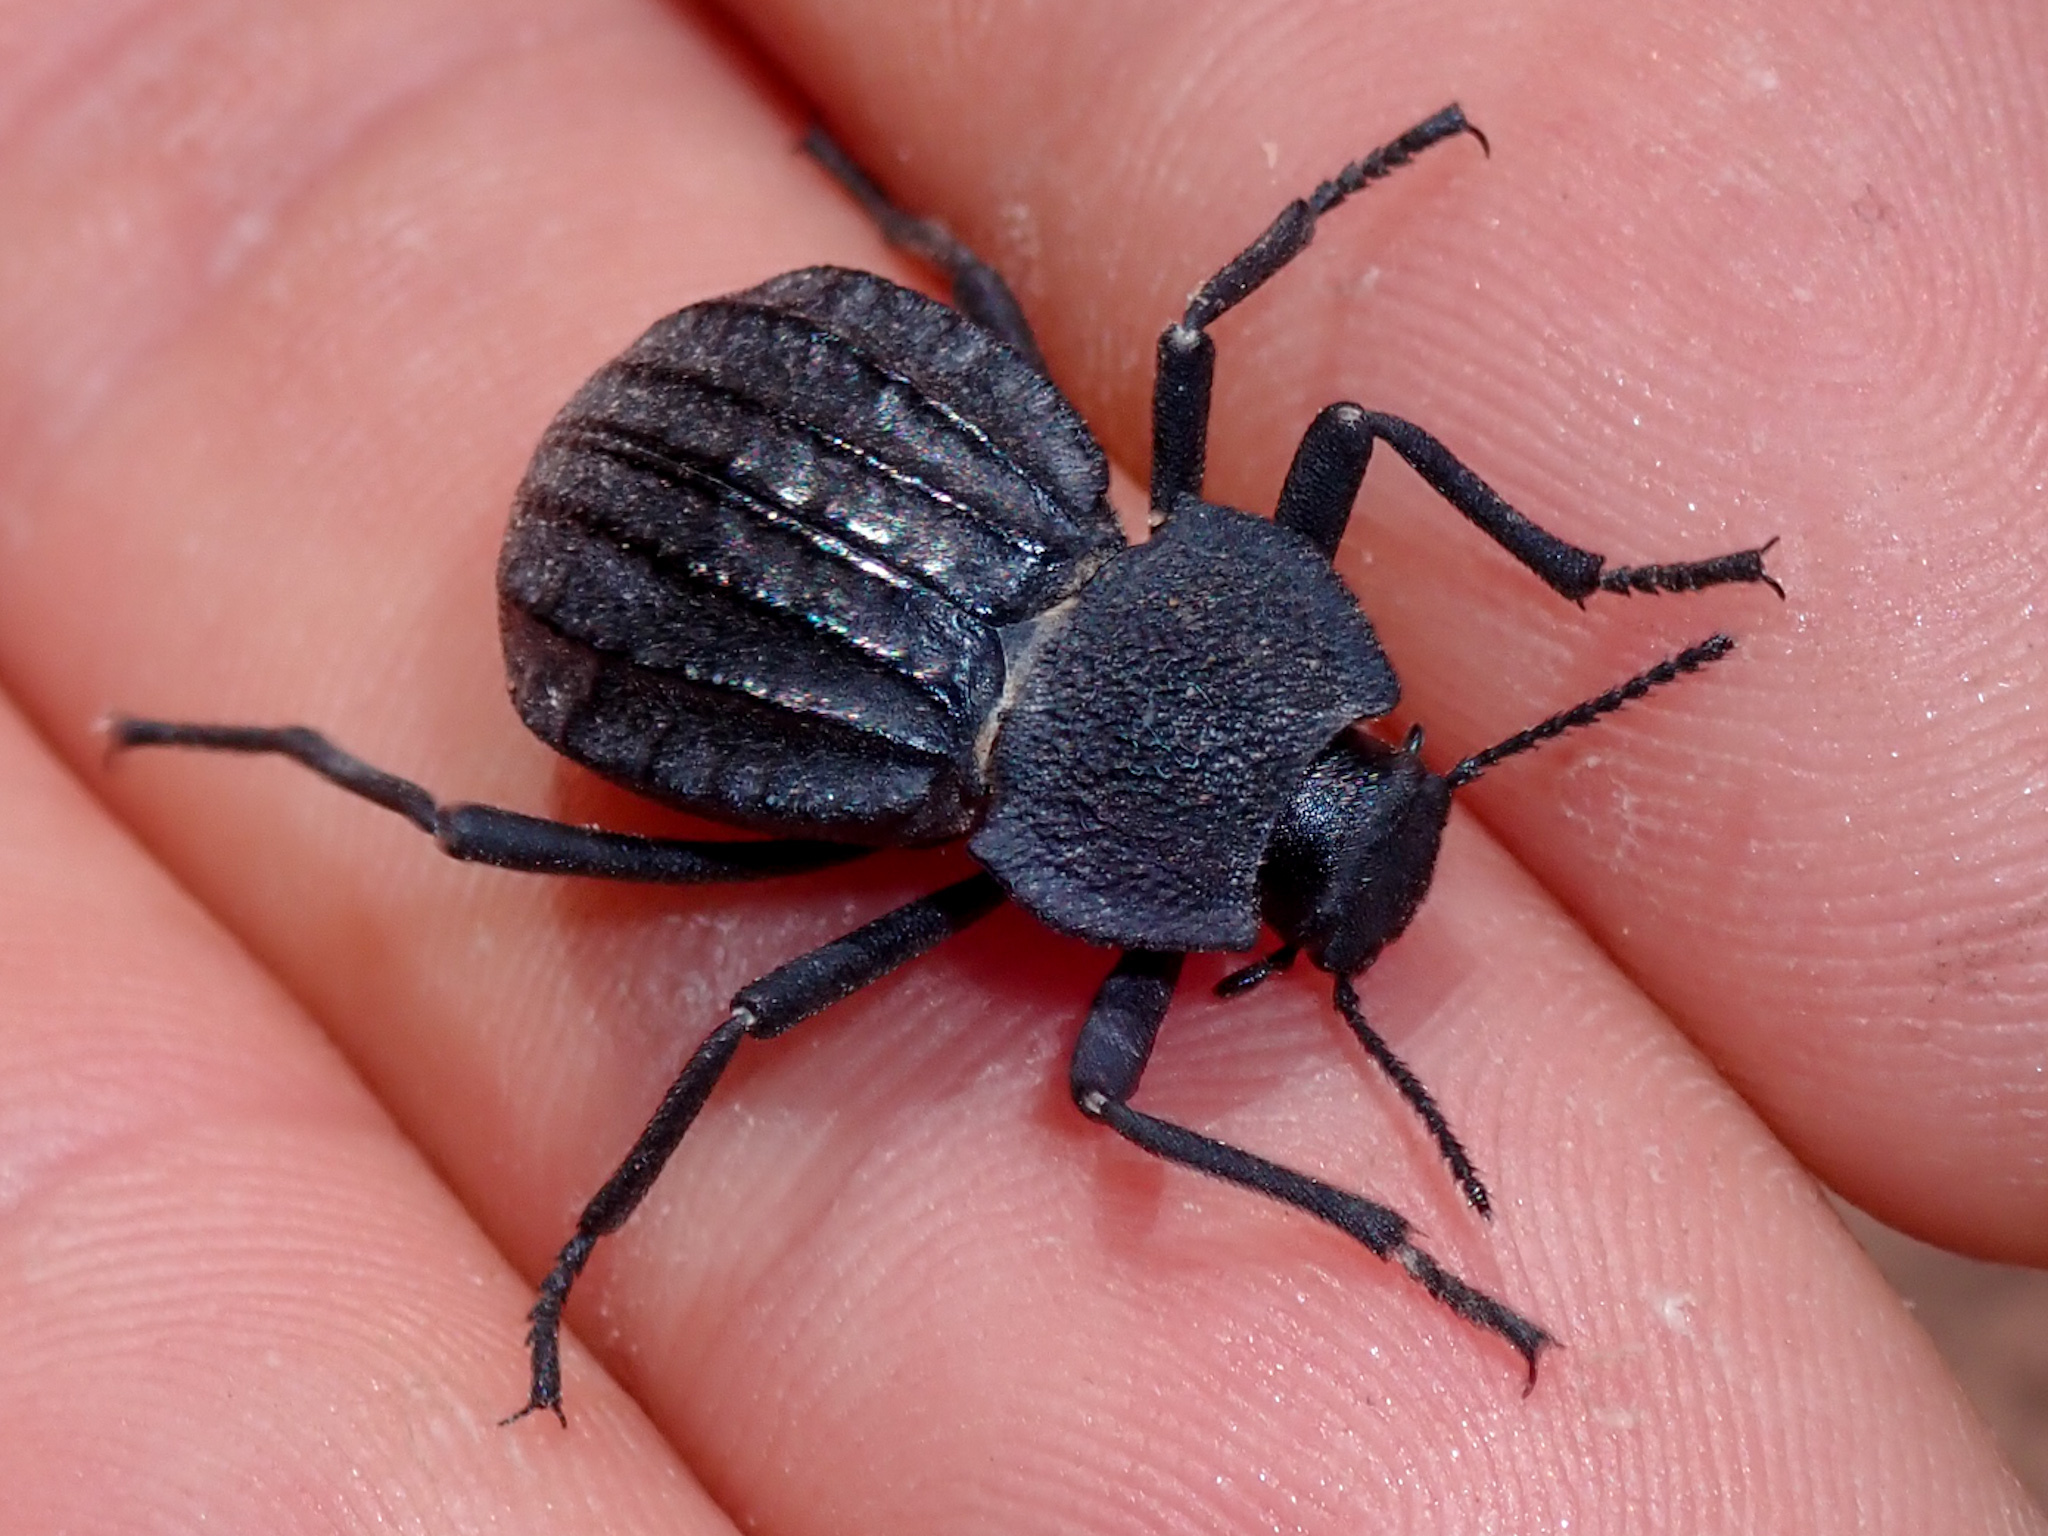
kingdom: Animalia
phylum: Arthropoda
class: Insecta
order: Coleoptera
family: Tenebrionidae
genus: Philolithus
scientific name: Philolithus sordidus
